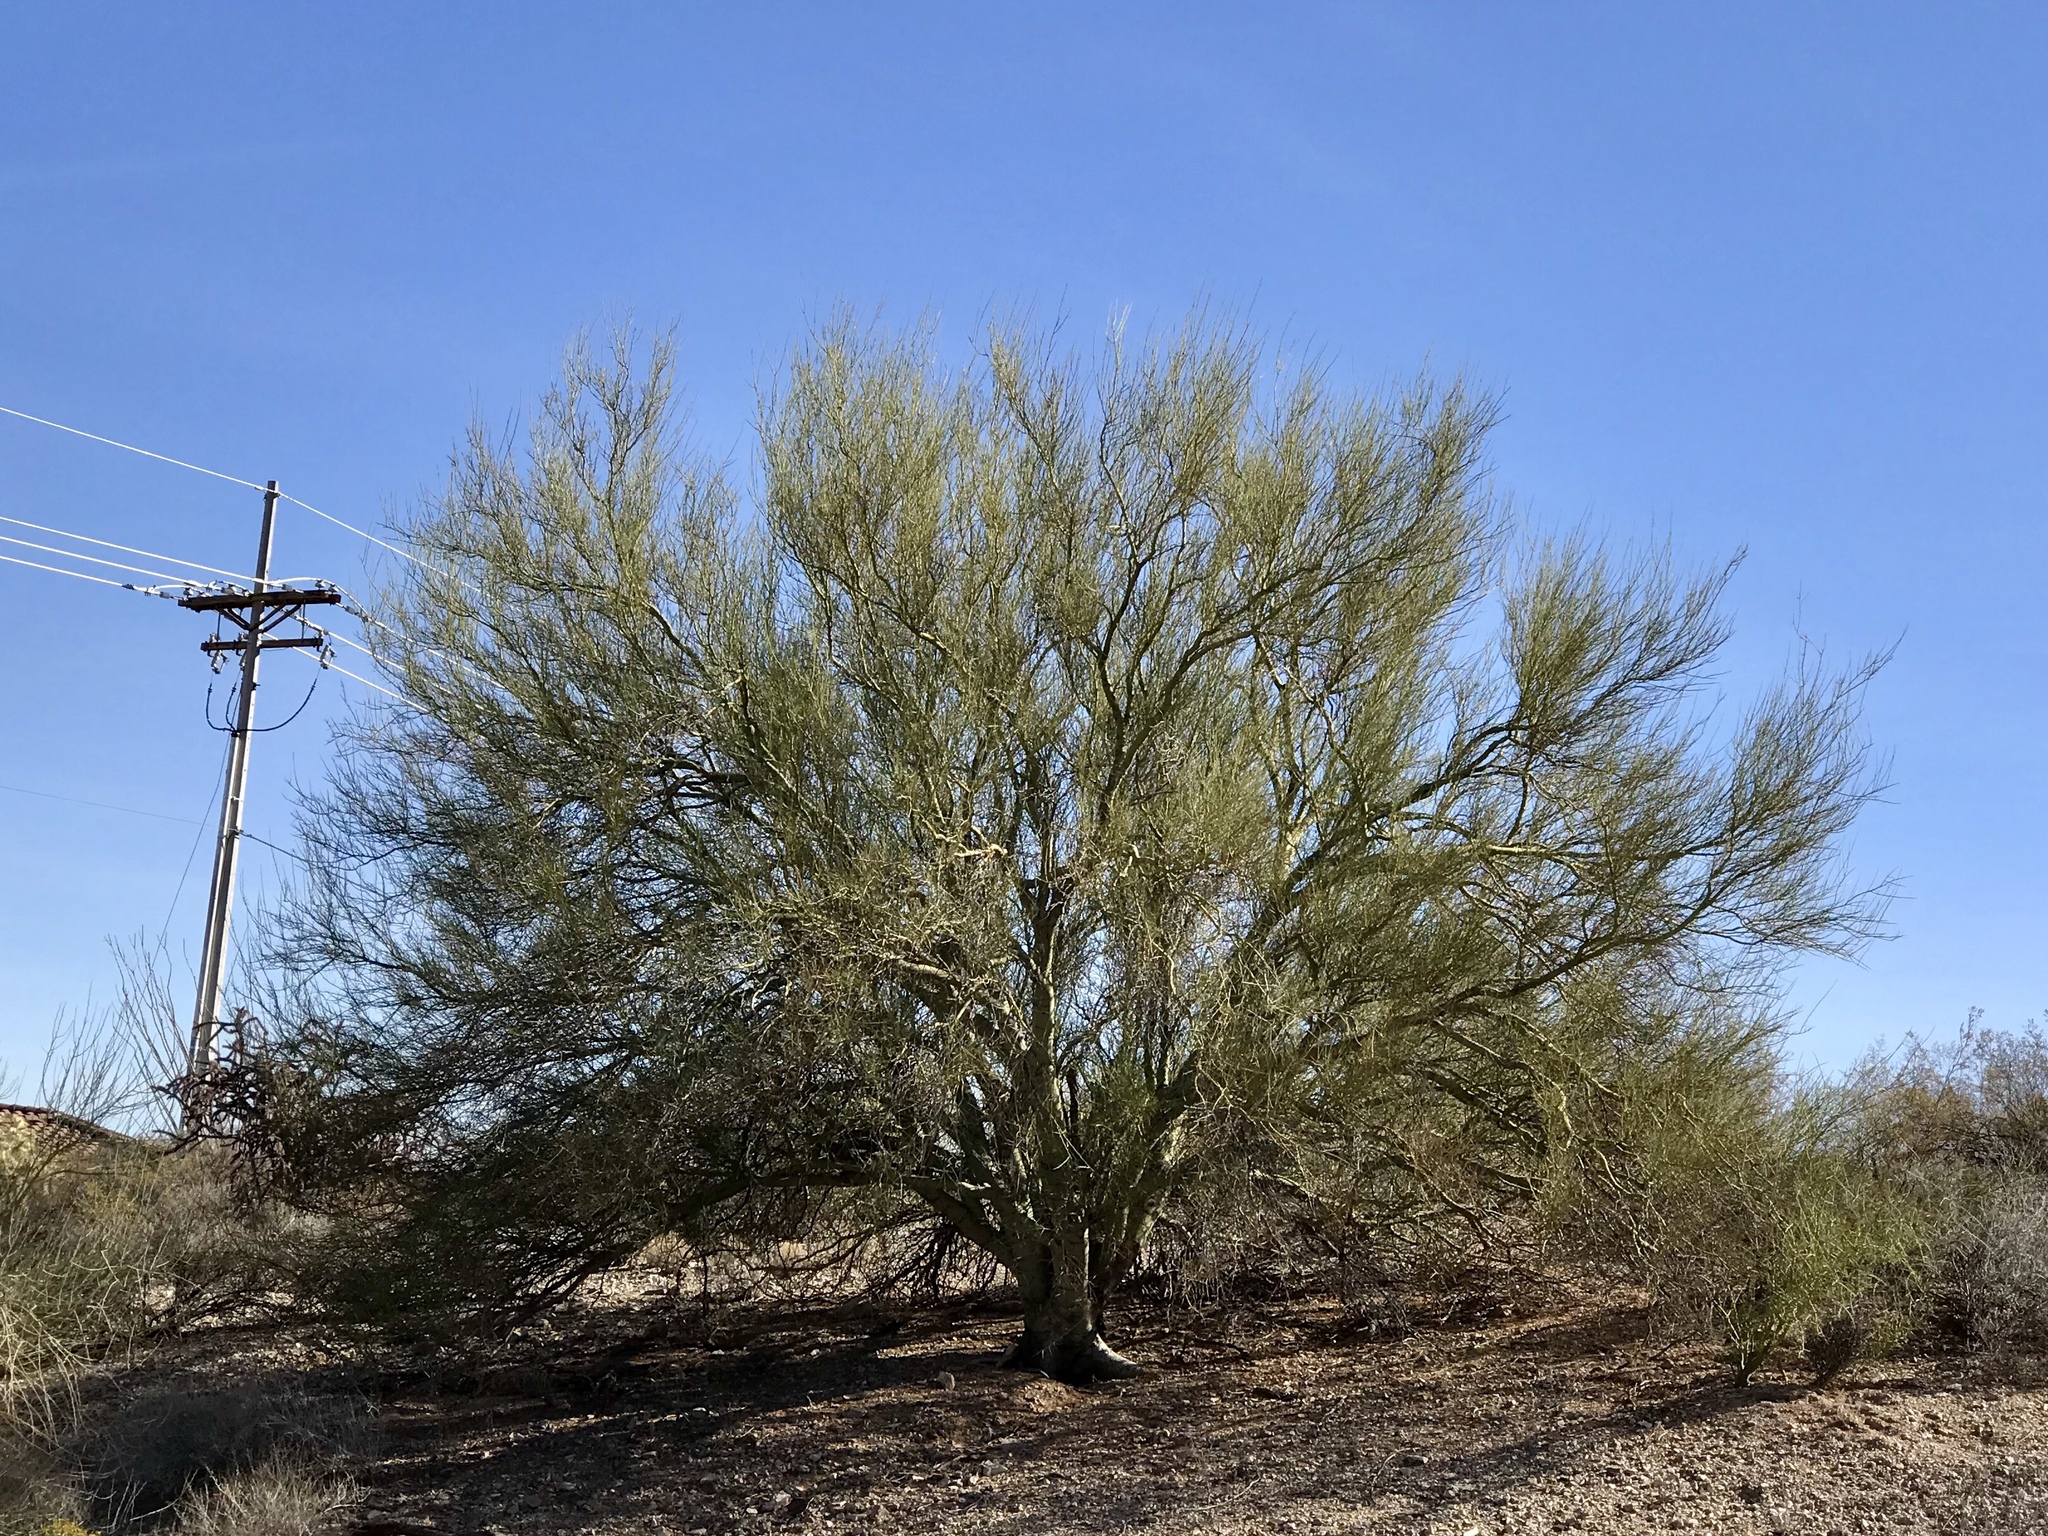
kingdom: Plantae
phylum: Tracheophyta
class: Magnoliopsida
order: Fabales
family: Fabaceae
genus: Parkinsonia
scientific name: Parkinsonia microphylla
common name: Yellow paloverde
